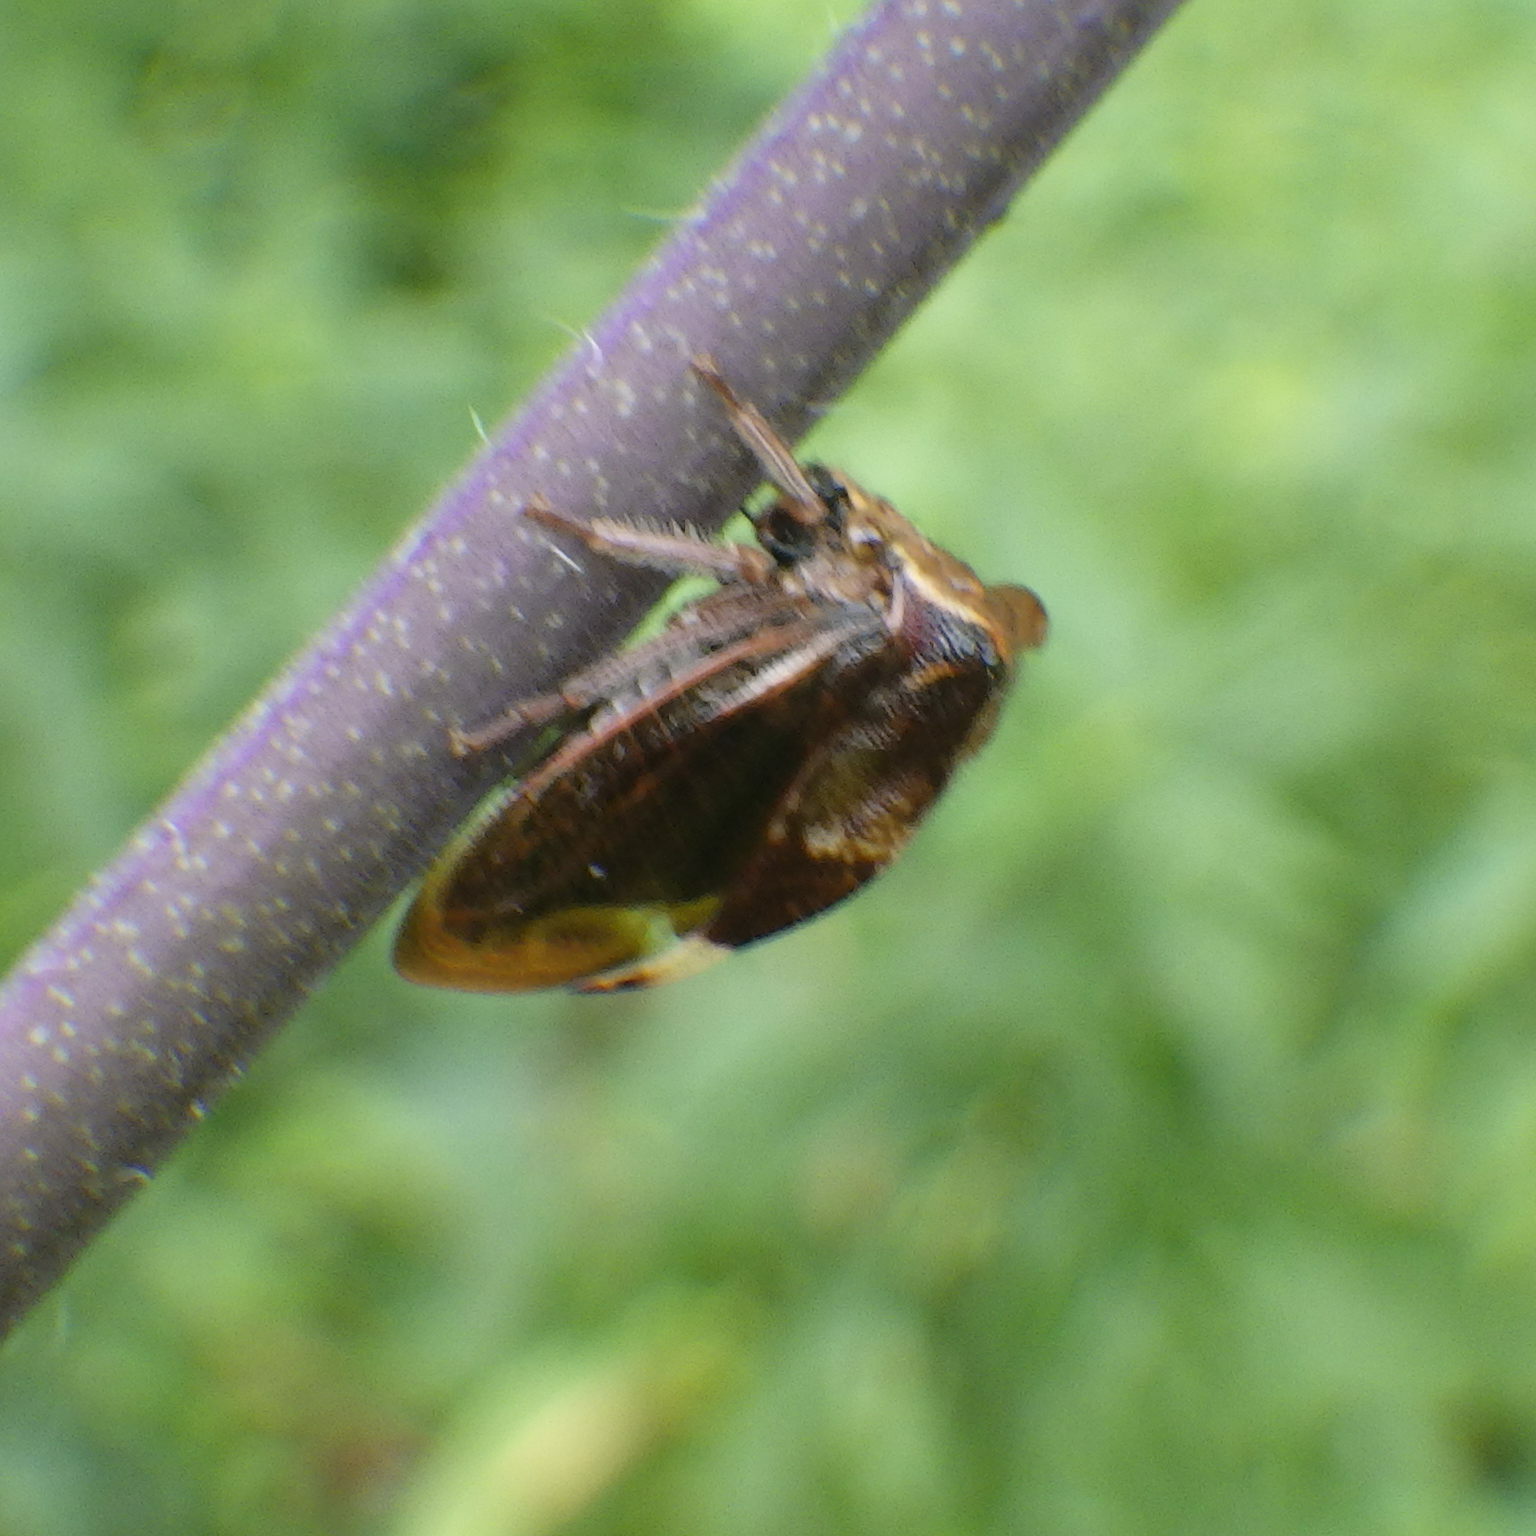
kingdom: Animalia
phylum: Arthropoda
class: Insecta
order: Hemiptera
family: Membracidae
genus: Stictocephala
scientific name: Stictocephala diceros
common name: Two-horned treehopper
